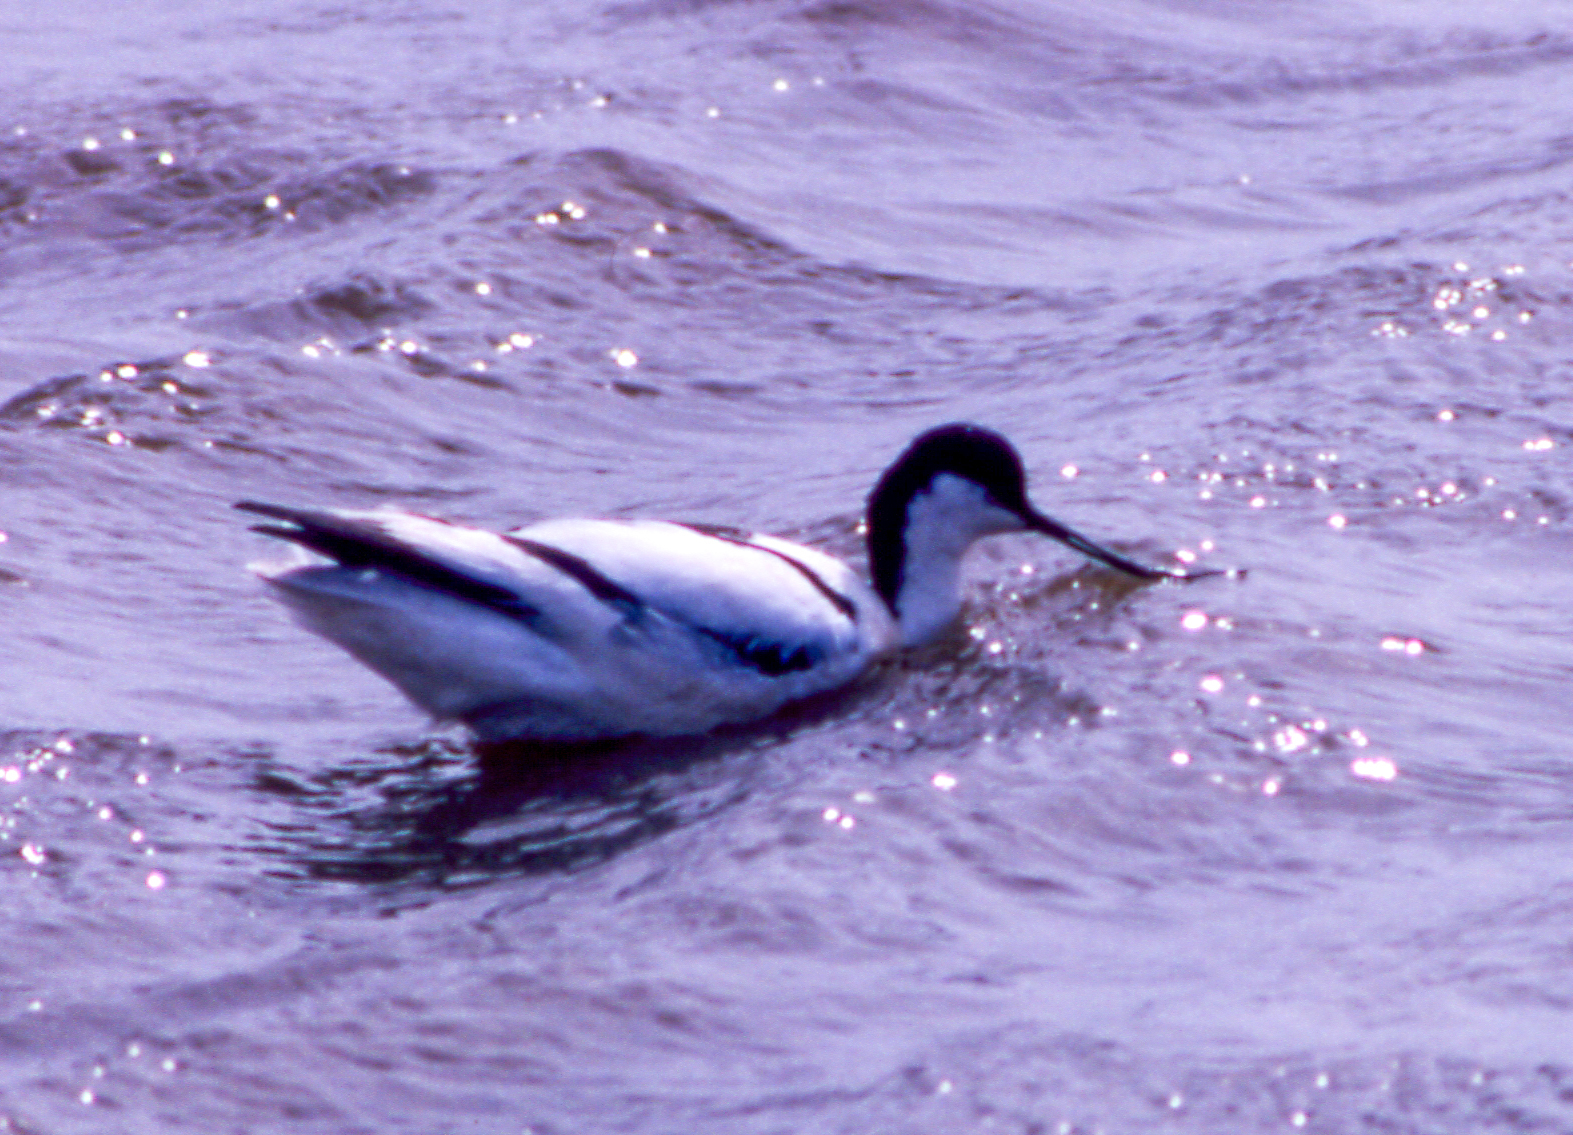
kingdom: Animalia
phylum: Chordata
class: Aves
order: Charadriiformes
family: Recurvirostridae
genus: Recurvirostra
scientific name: Recurvirostra avosetta
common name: Pied avocet
